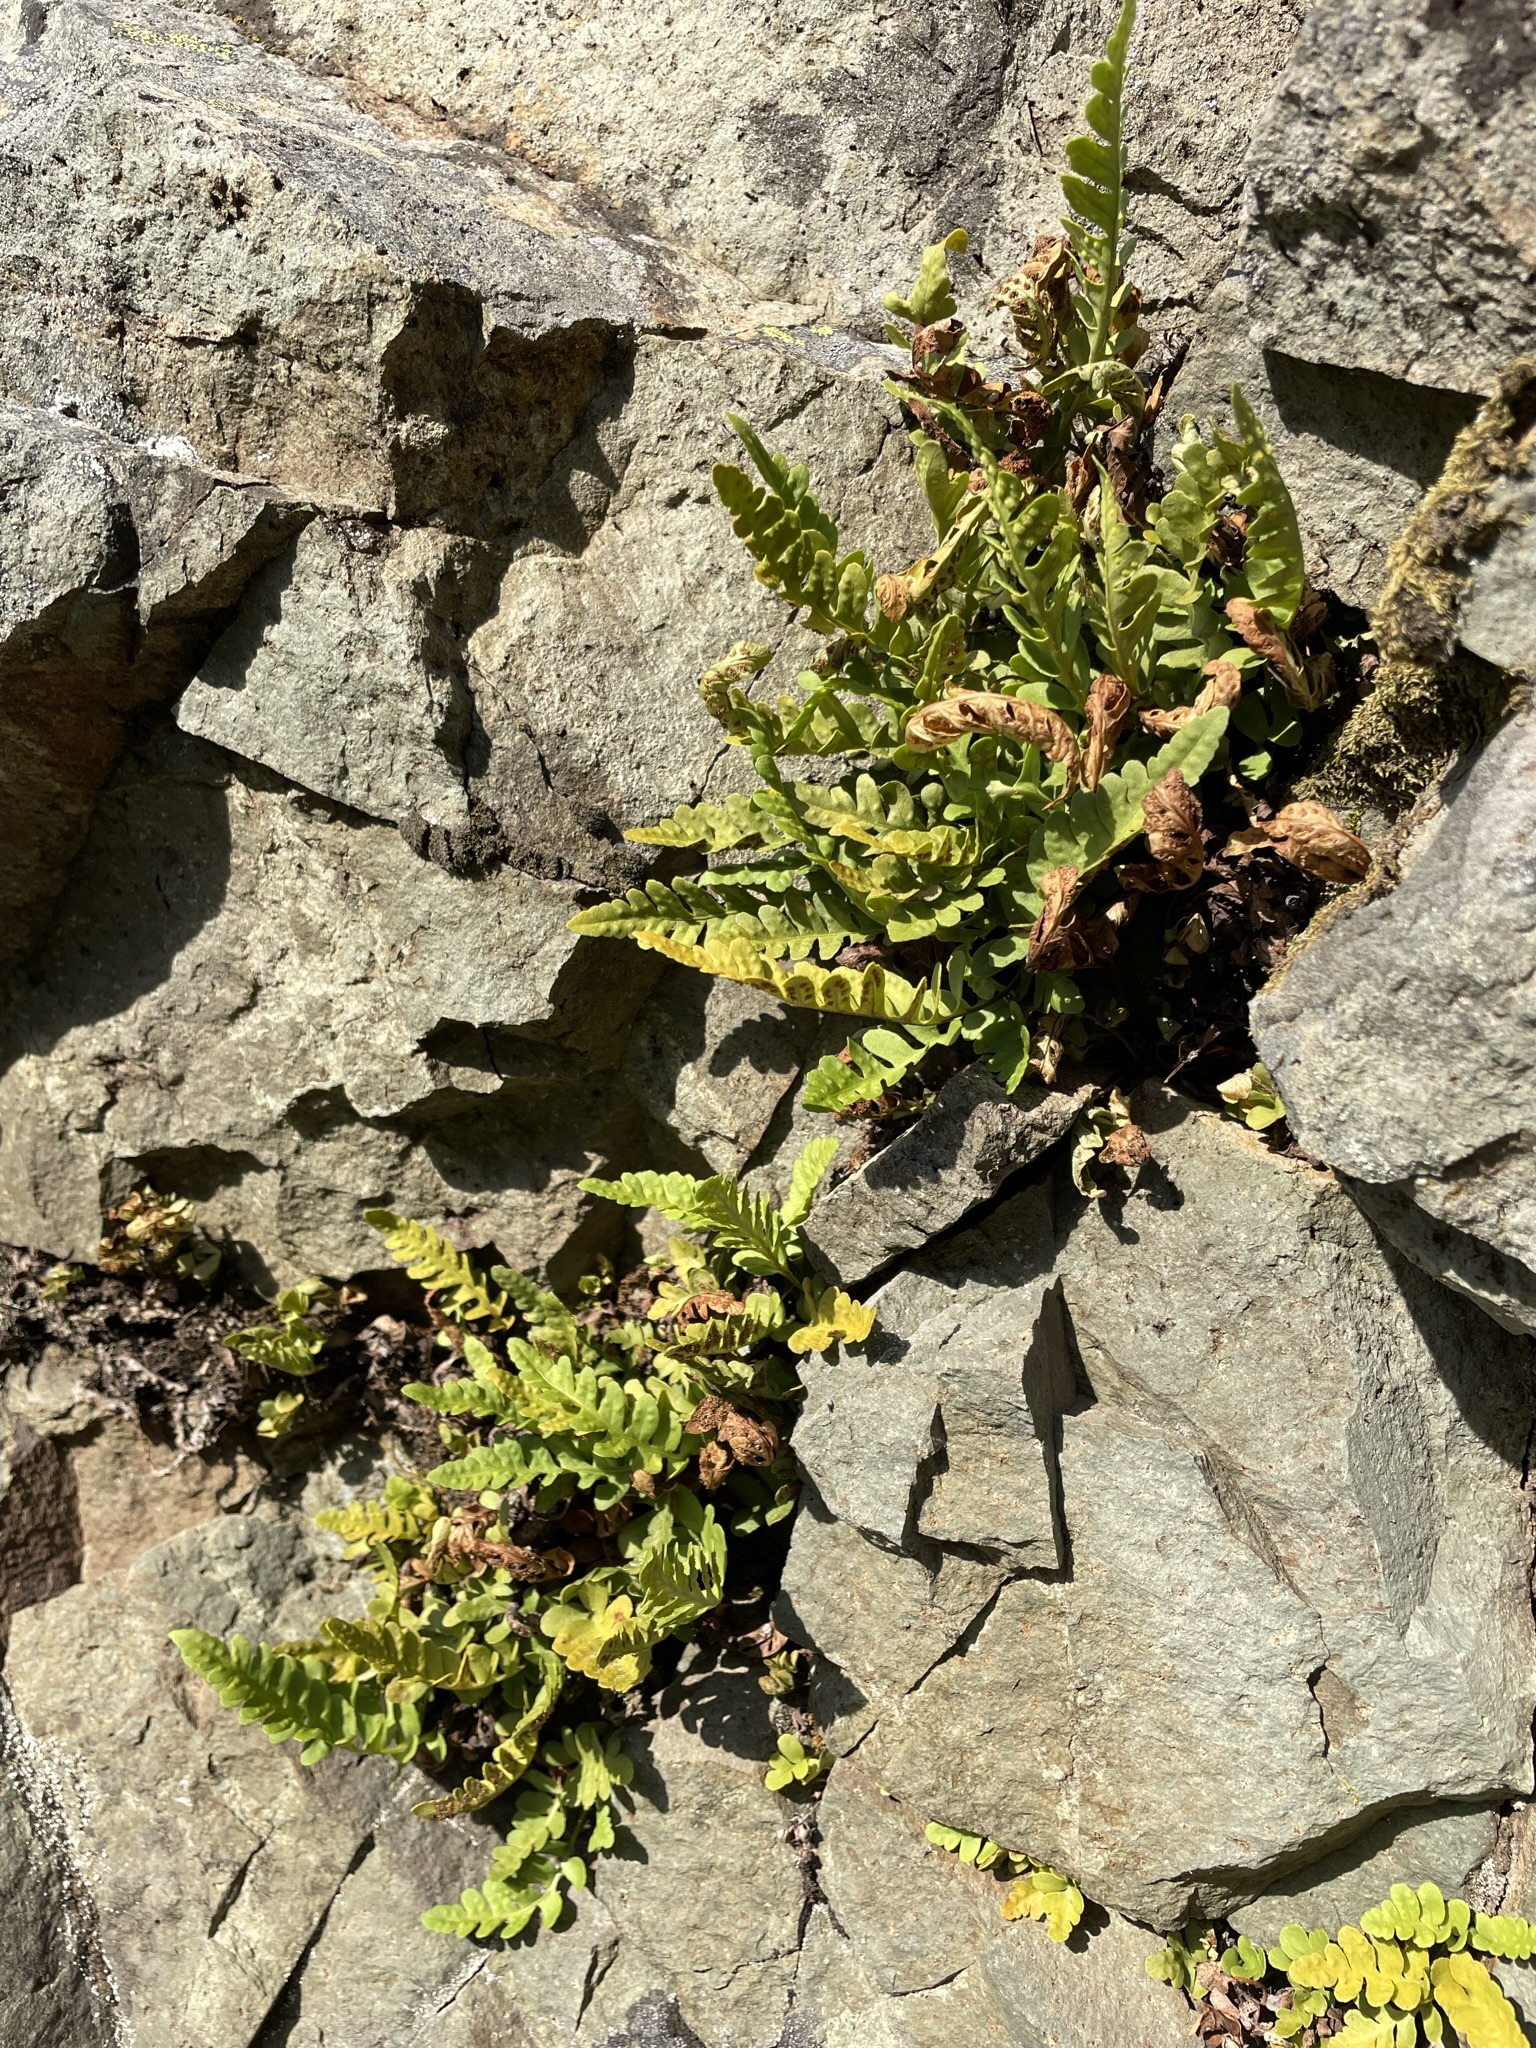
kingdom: Plantae
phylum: Tracheophyta
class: Polypodiopsida
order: Polypodiales
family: Polypodiaceae
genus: Polypodium
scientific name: Polypodium amorphum
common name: Pacific polypody
